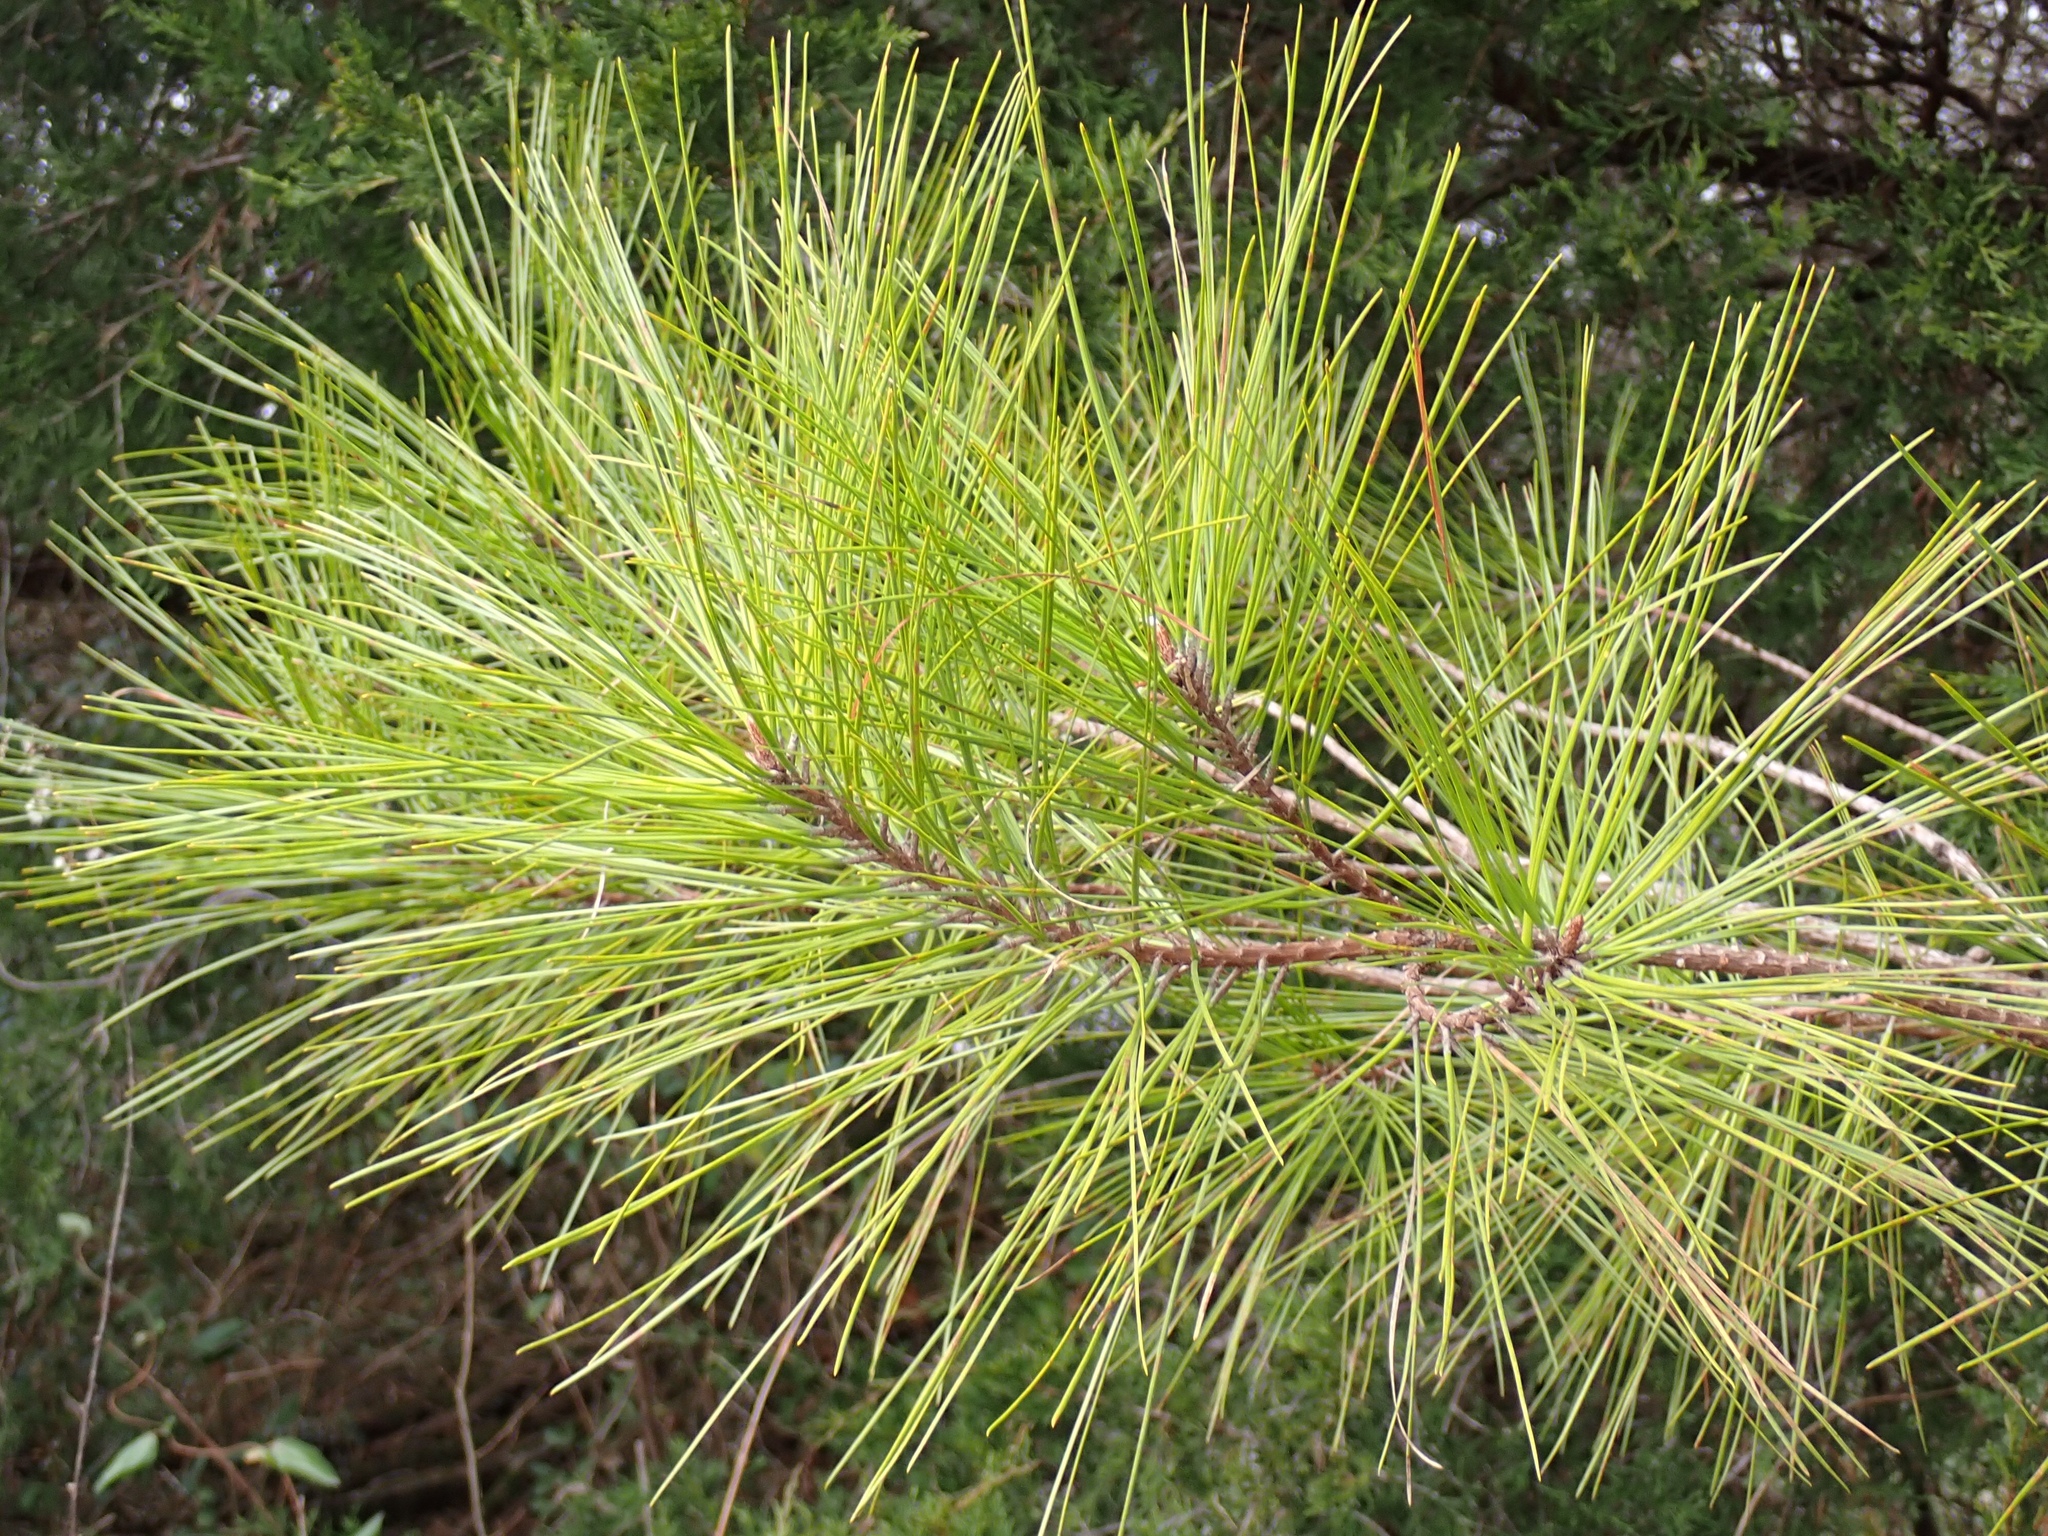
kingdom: Plantae
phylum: Tracheophyta
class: Pinopsida
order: Pinales
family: Pinaceae
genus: Pinus
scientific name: Pinus taeda
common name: Loblolly pine
